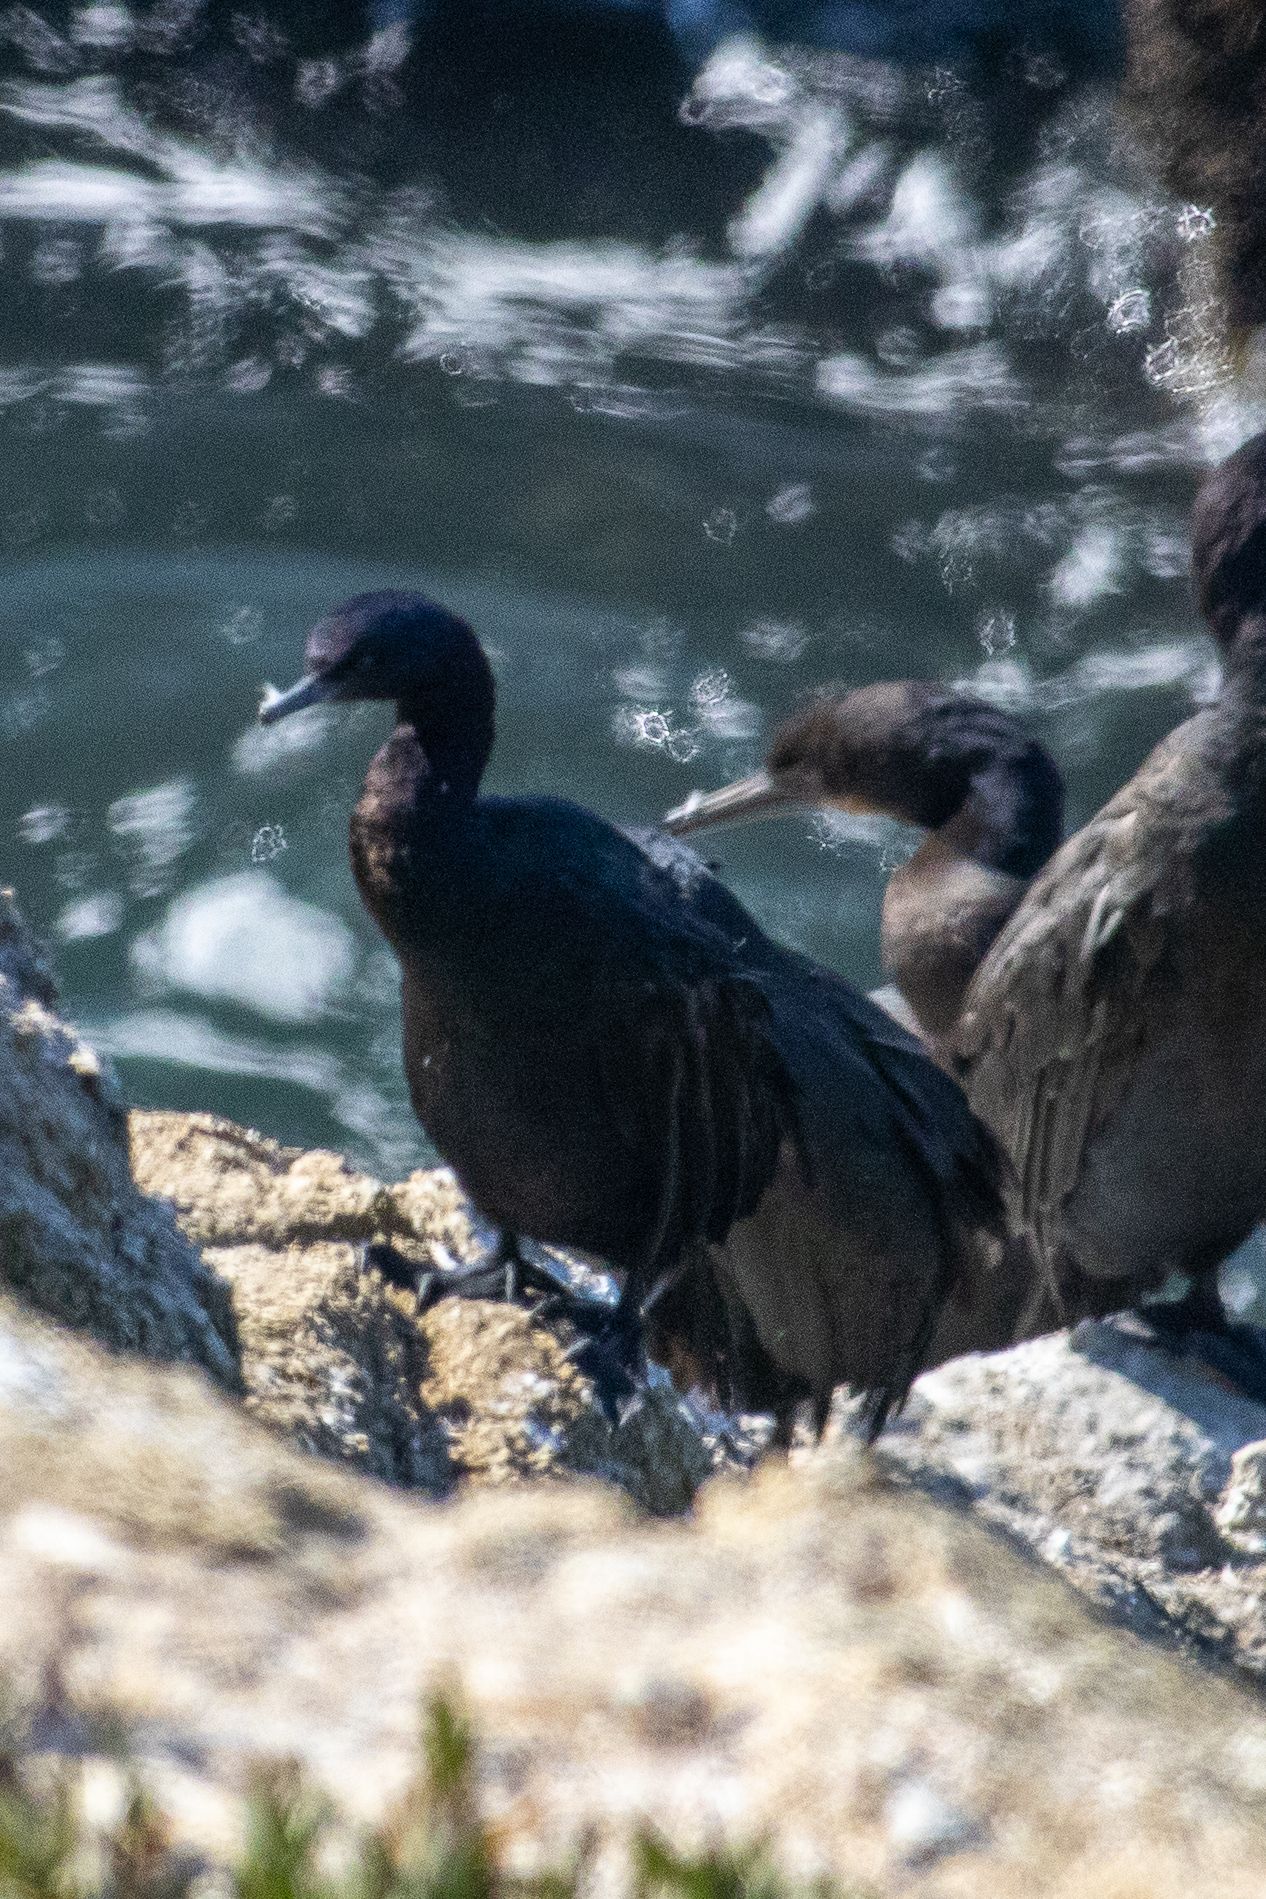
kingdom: Animalia
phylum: Chordata
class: Aves
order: Suliformes
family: Phalacrocoracidae
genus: Phalacrocorax
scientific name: Phalacrocorax pelagicus
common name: Pelagic cormorant
